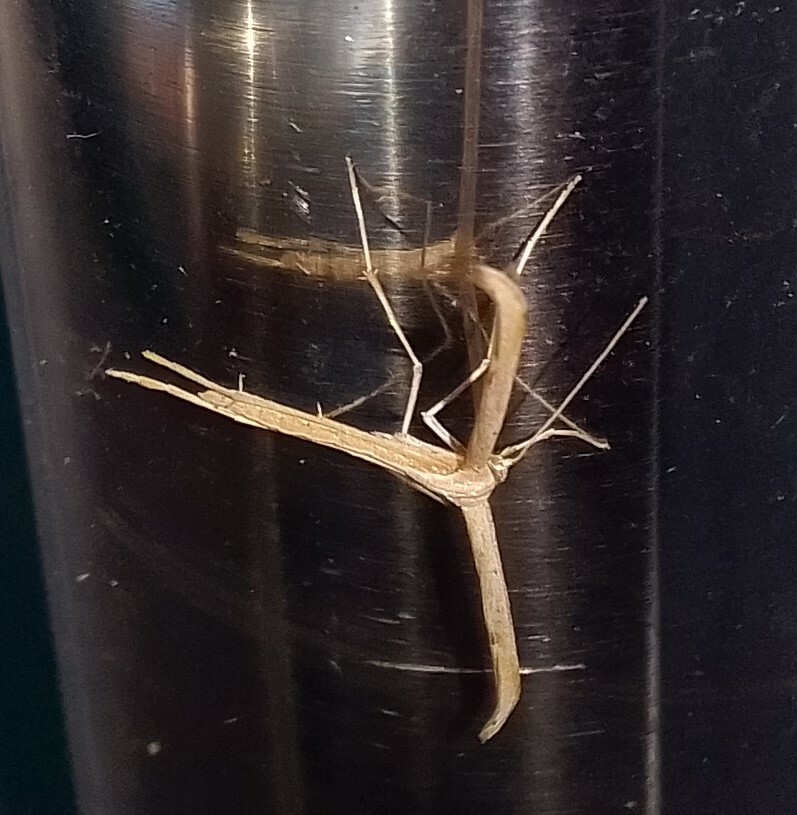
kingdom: Animalia
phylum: Arthropoda
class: Insecta
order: Lepidoptera
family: Pterophoridae
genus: Emmelina
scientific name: Emmelina monodactyla
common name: Common plume
